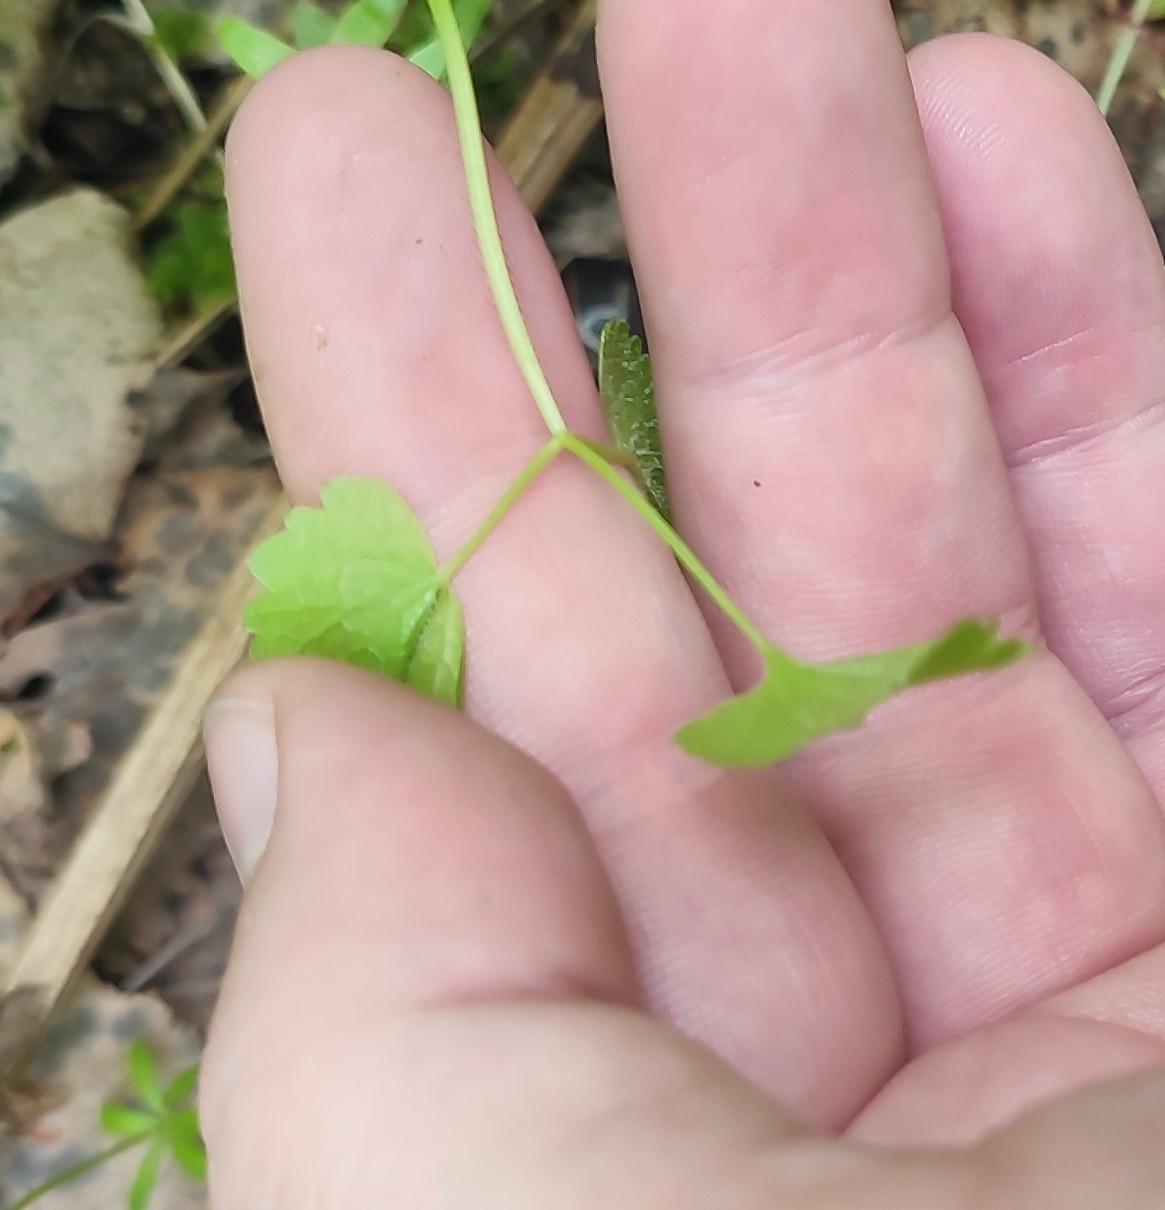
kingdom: Plantae
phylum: Tracheophyta
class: Magnoliopsida
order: Lamiales
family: Lamiaceae
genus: Glechoma
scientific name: Glechoma hederacea
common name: Ground ivy
